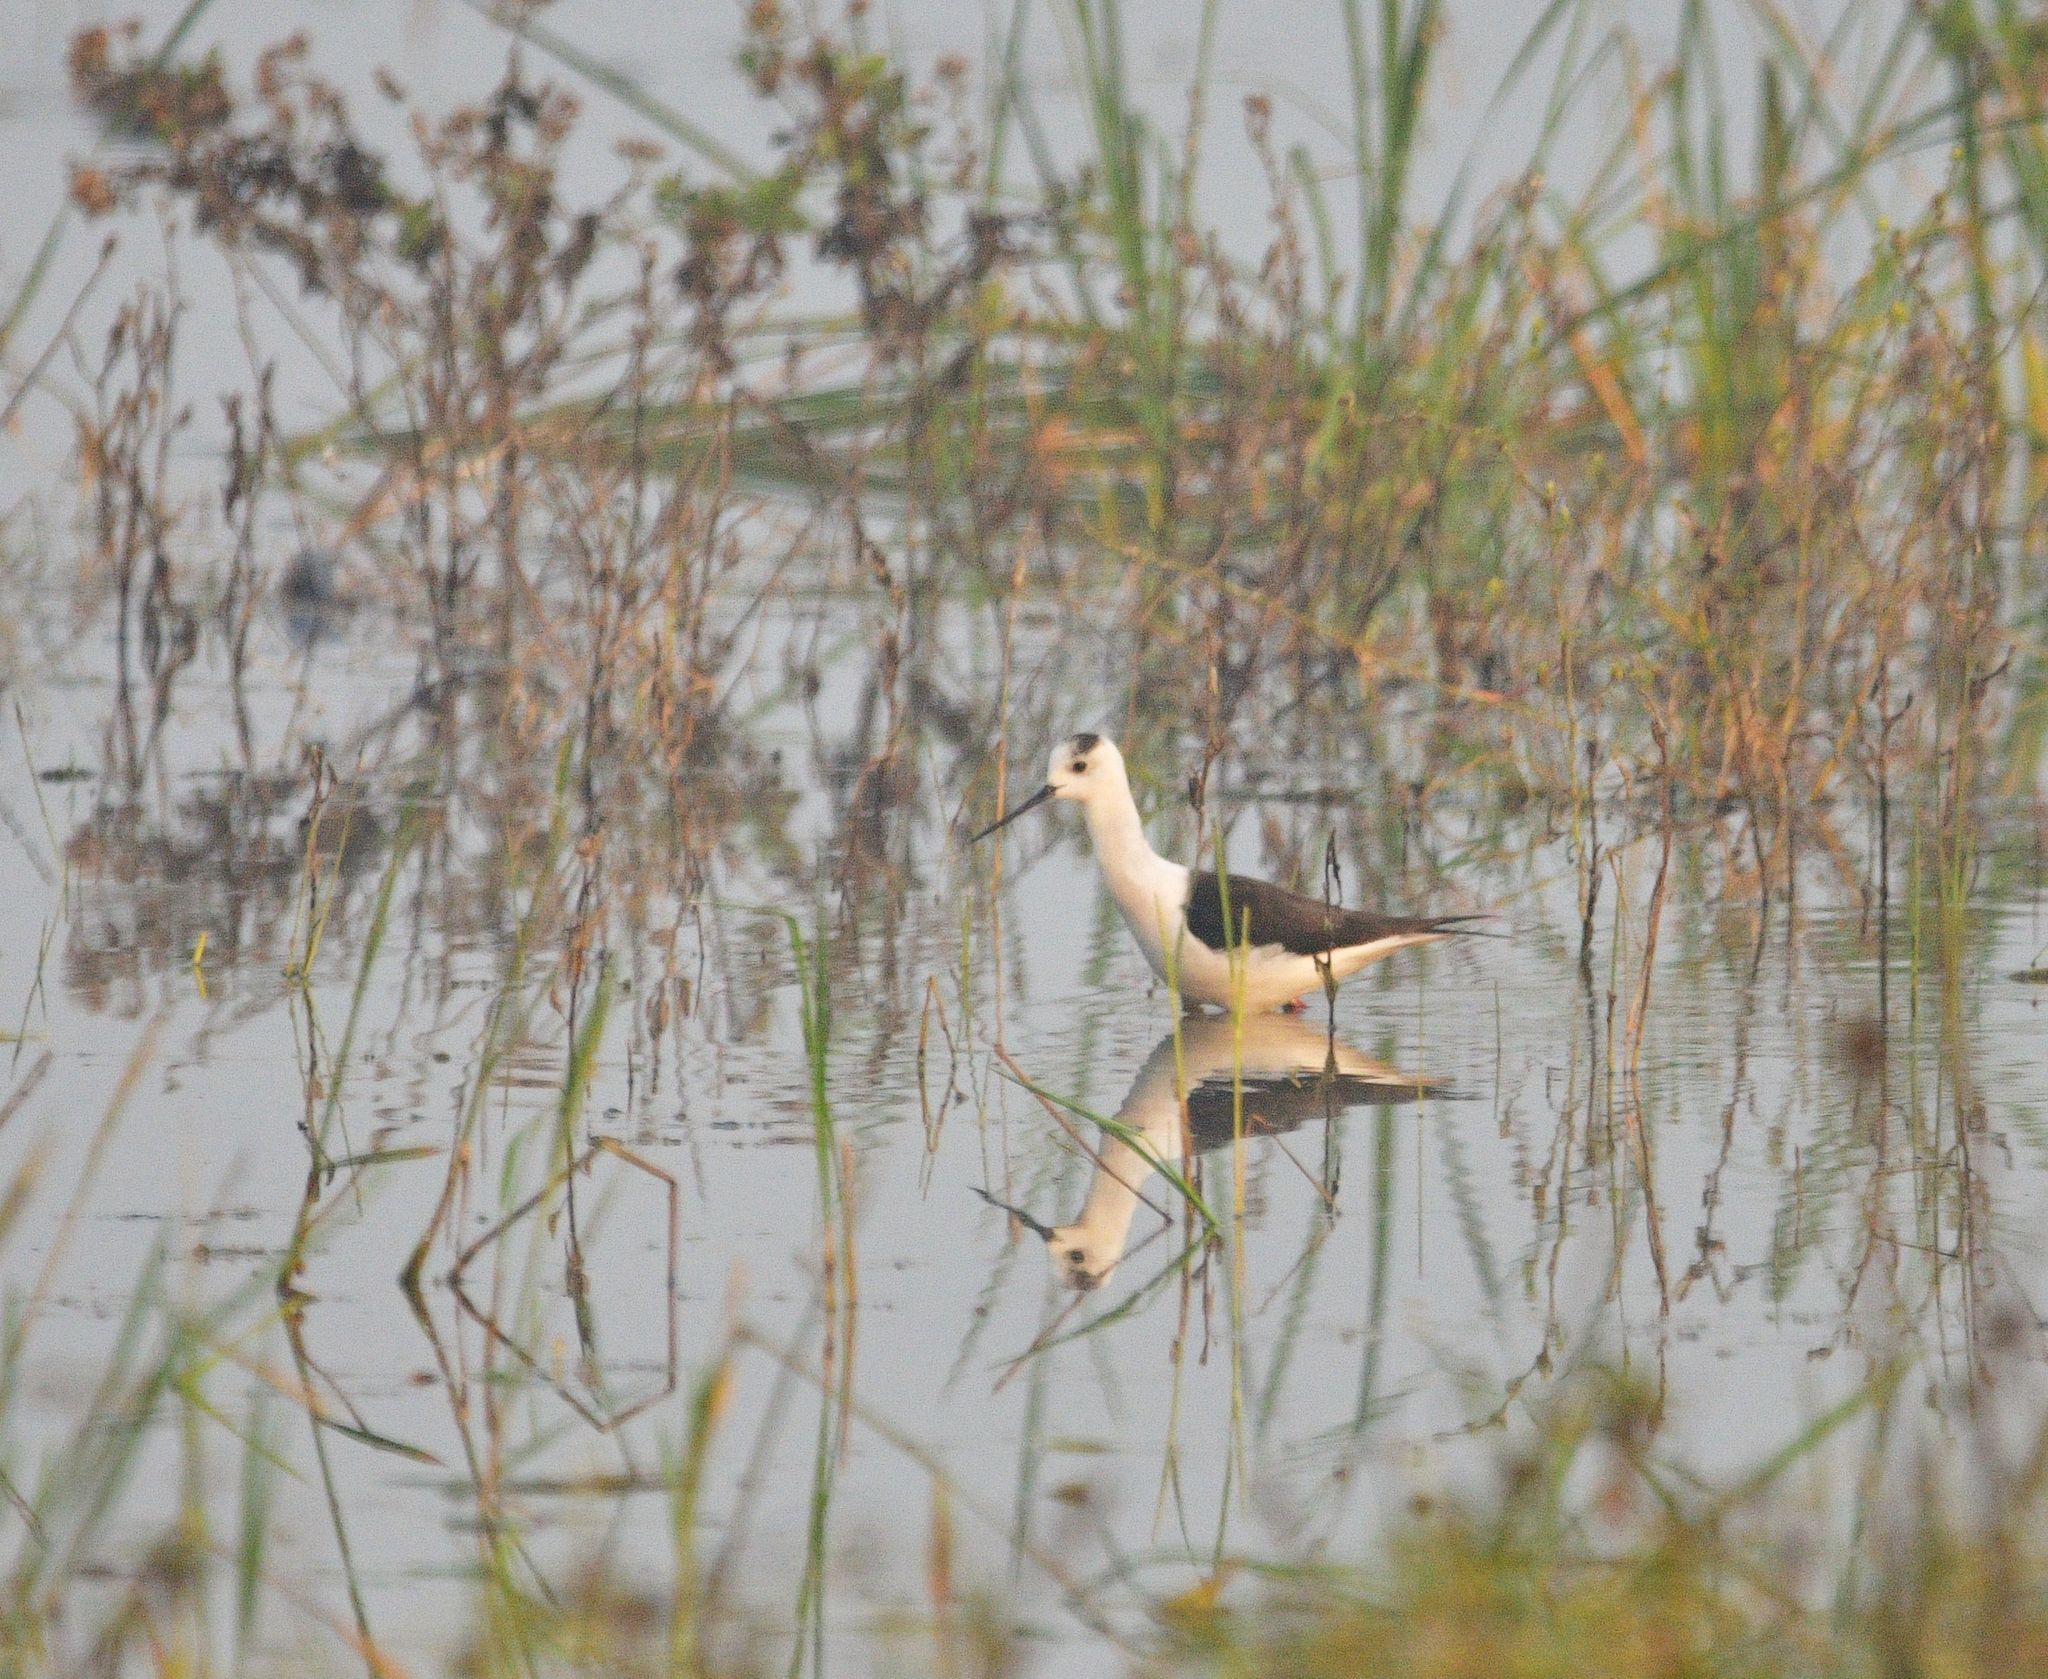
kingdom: Animalia
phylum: Chordata
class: Aves
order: Charadriiformes
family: Recurvirostridae
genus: Himantopus
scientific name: Himantopus himantopus
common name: Black-winged stilt
